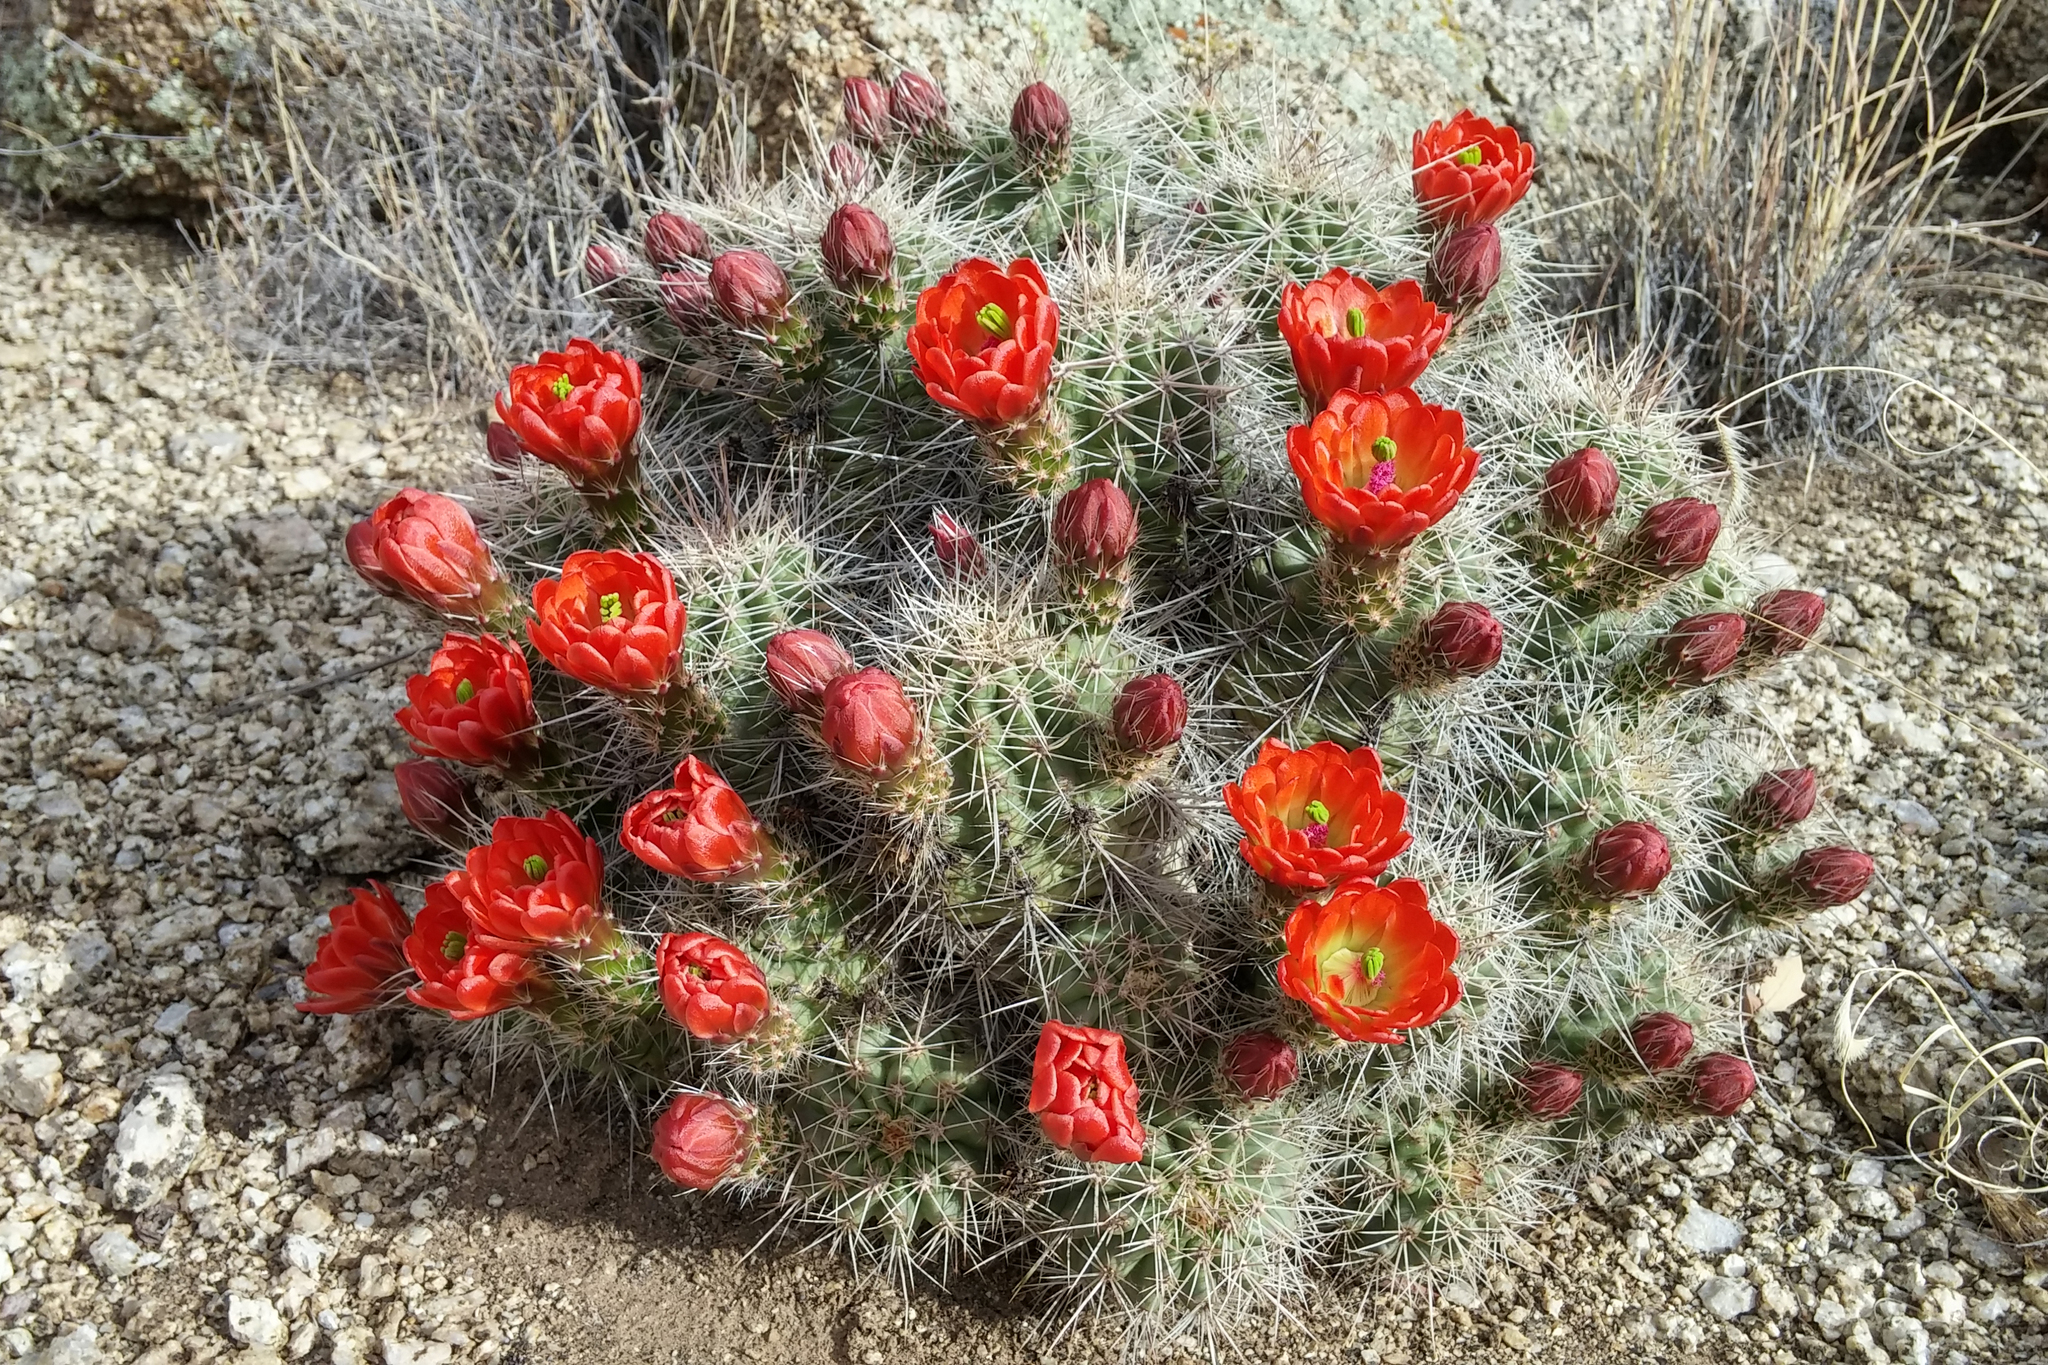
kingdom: Plantae
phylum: Tracheophyta
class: Magnoliopsida
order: Caryophyllales
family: Cactaceae
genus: Echinocereus
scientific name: Echinocereus coccineus
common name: Scarlet hedgehog cactus
